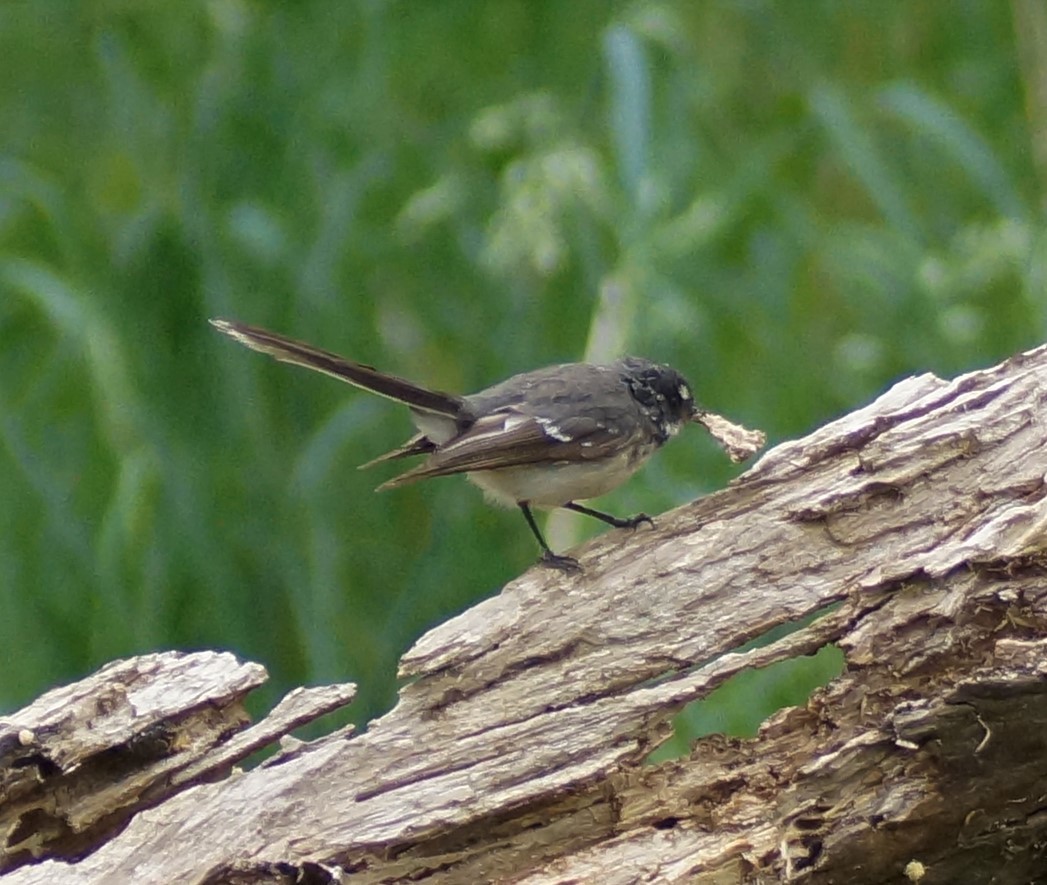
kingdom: Animalia
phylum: Chordata
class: Aves
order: Passeriformes
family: Rhipiduridae
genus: Rhipidura
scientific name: Rhipidura albiscapa
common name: Grey fantail
